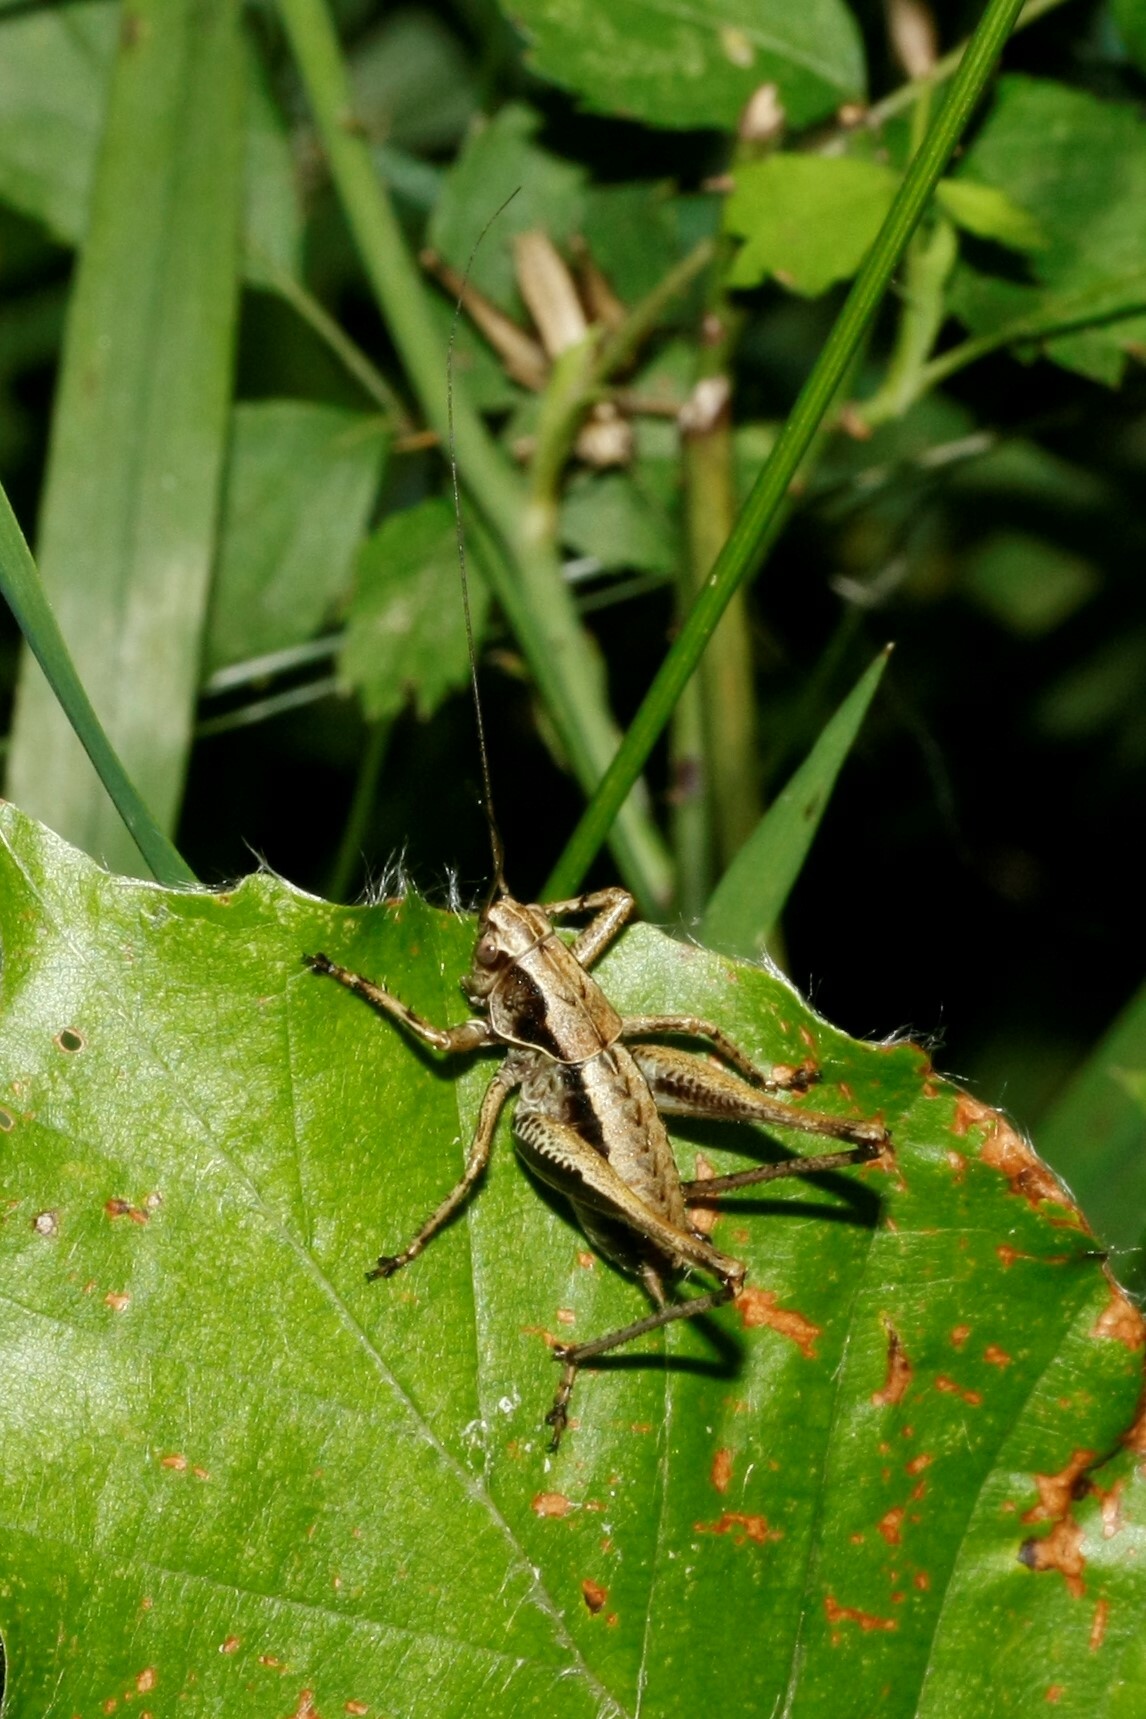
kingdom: Animalia
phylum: Arthropoda
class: Insecta
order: Orthoptera
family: Tettigoniidae
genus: Pholidoptera
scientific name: Pholidoptera griseoaptera
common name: Dark bush-cricket
